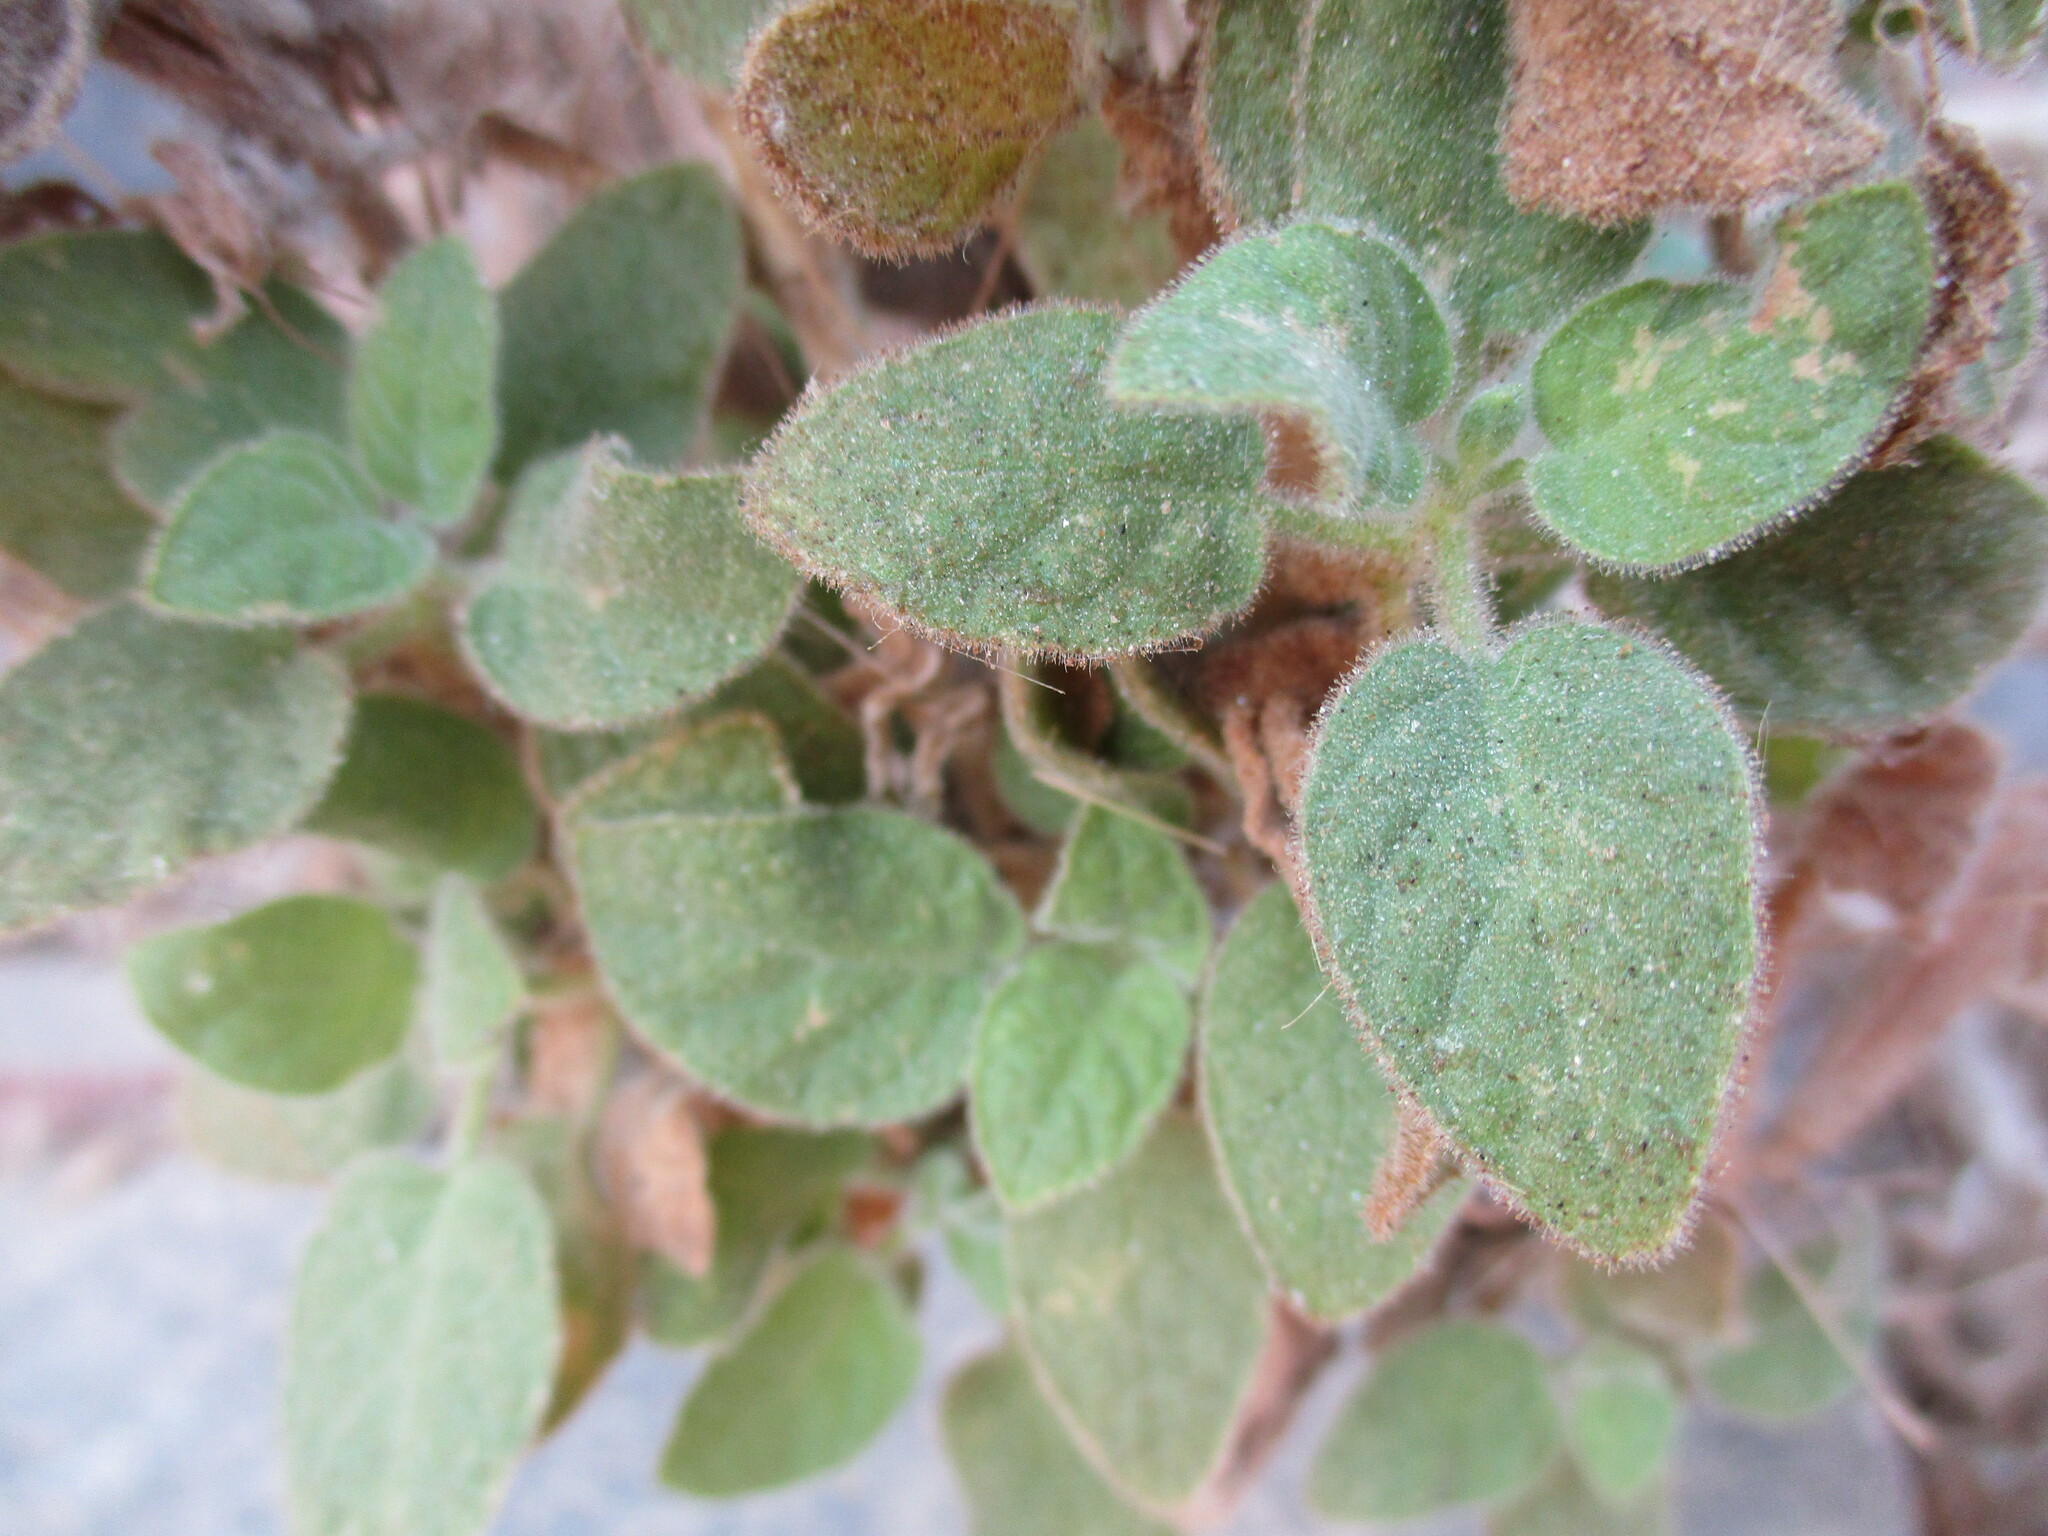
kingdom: Plantae
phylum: Tracheophyta
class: Magnoliopsida
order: Lamiales
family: Acanthaceae
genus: Dinteracanthus
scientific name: Dinteracanthus diversifolius
